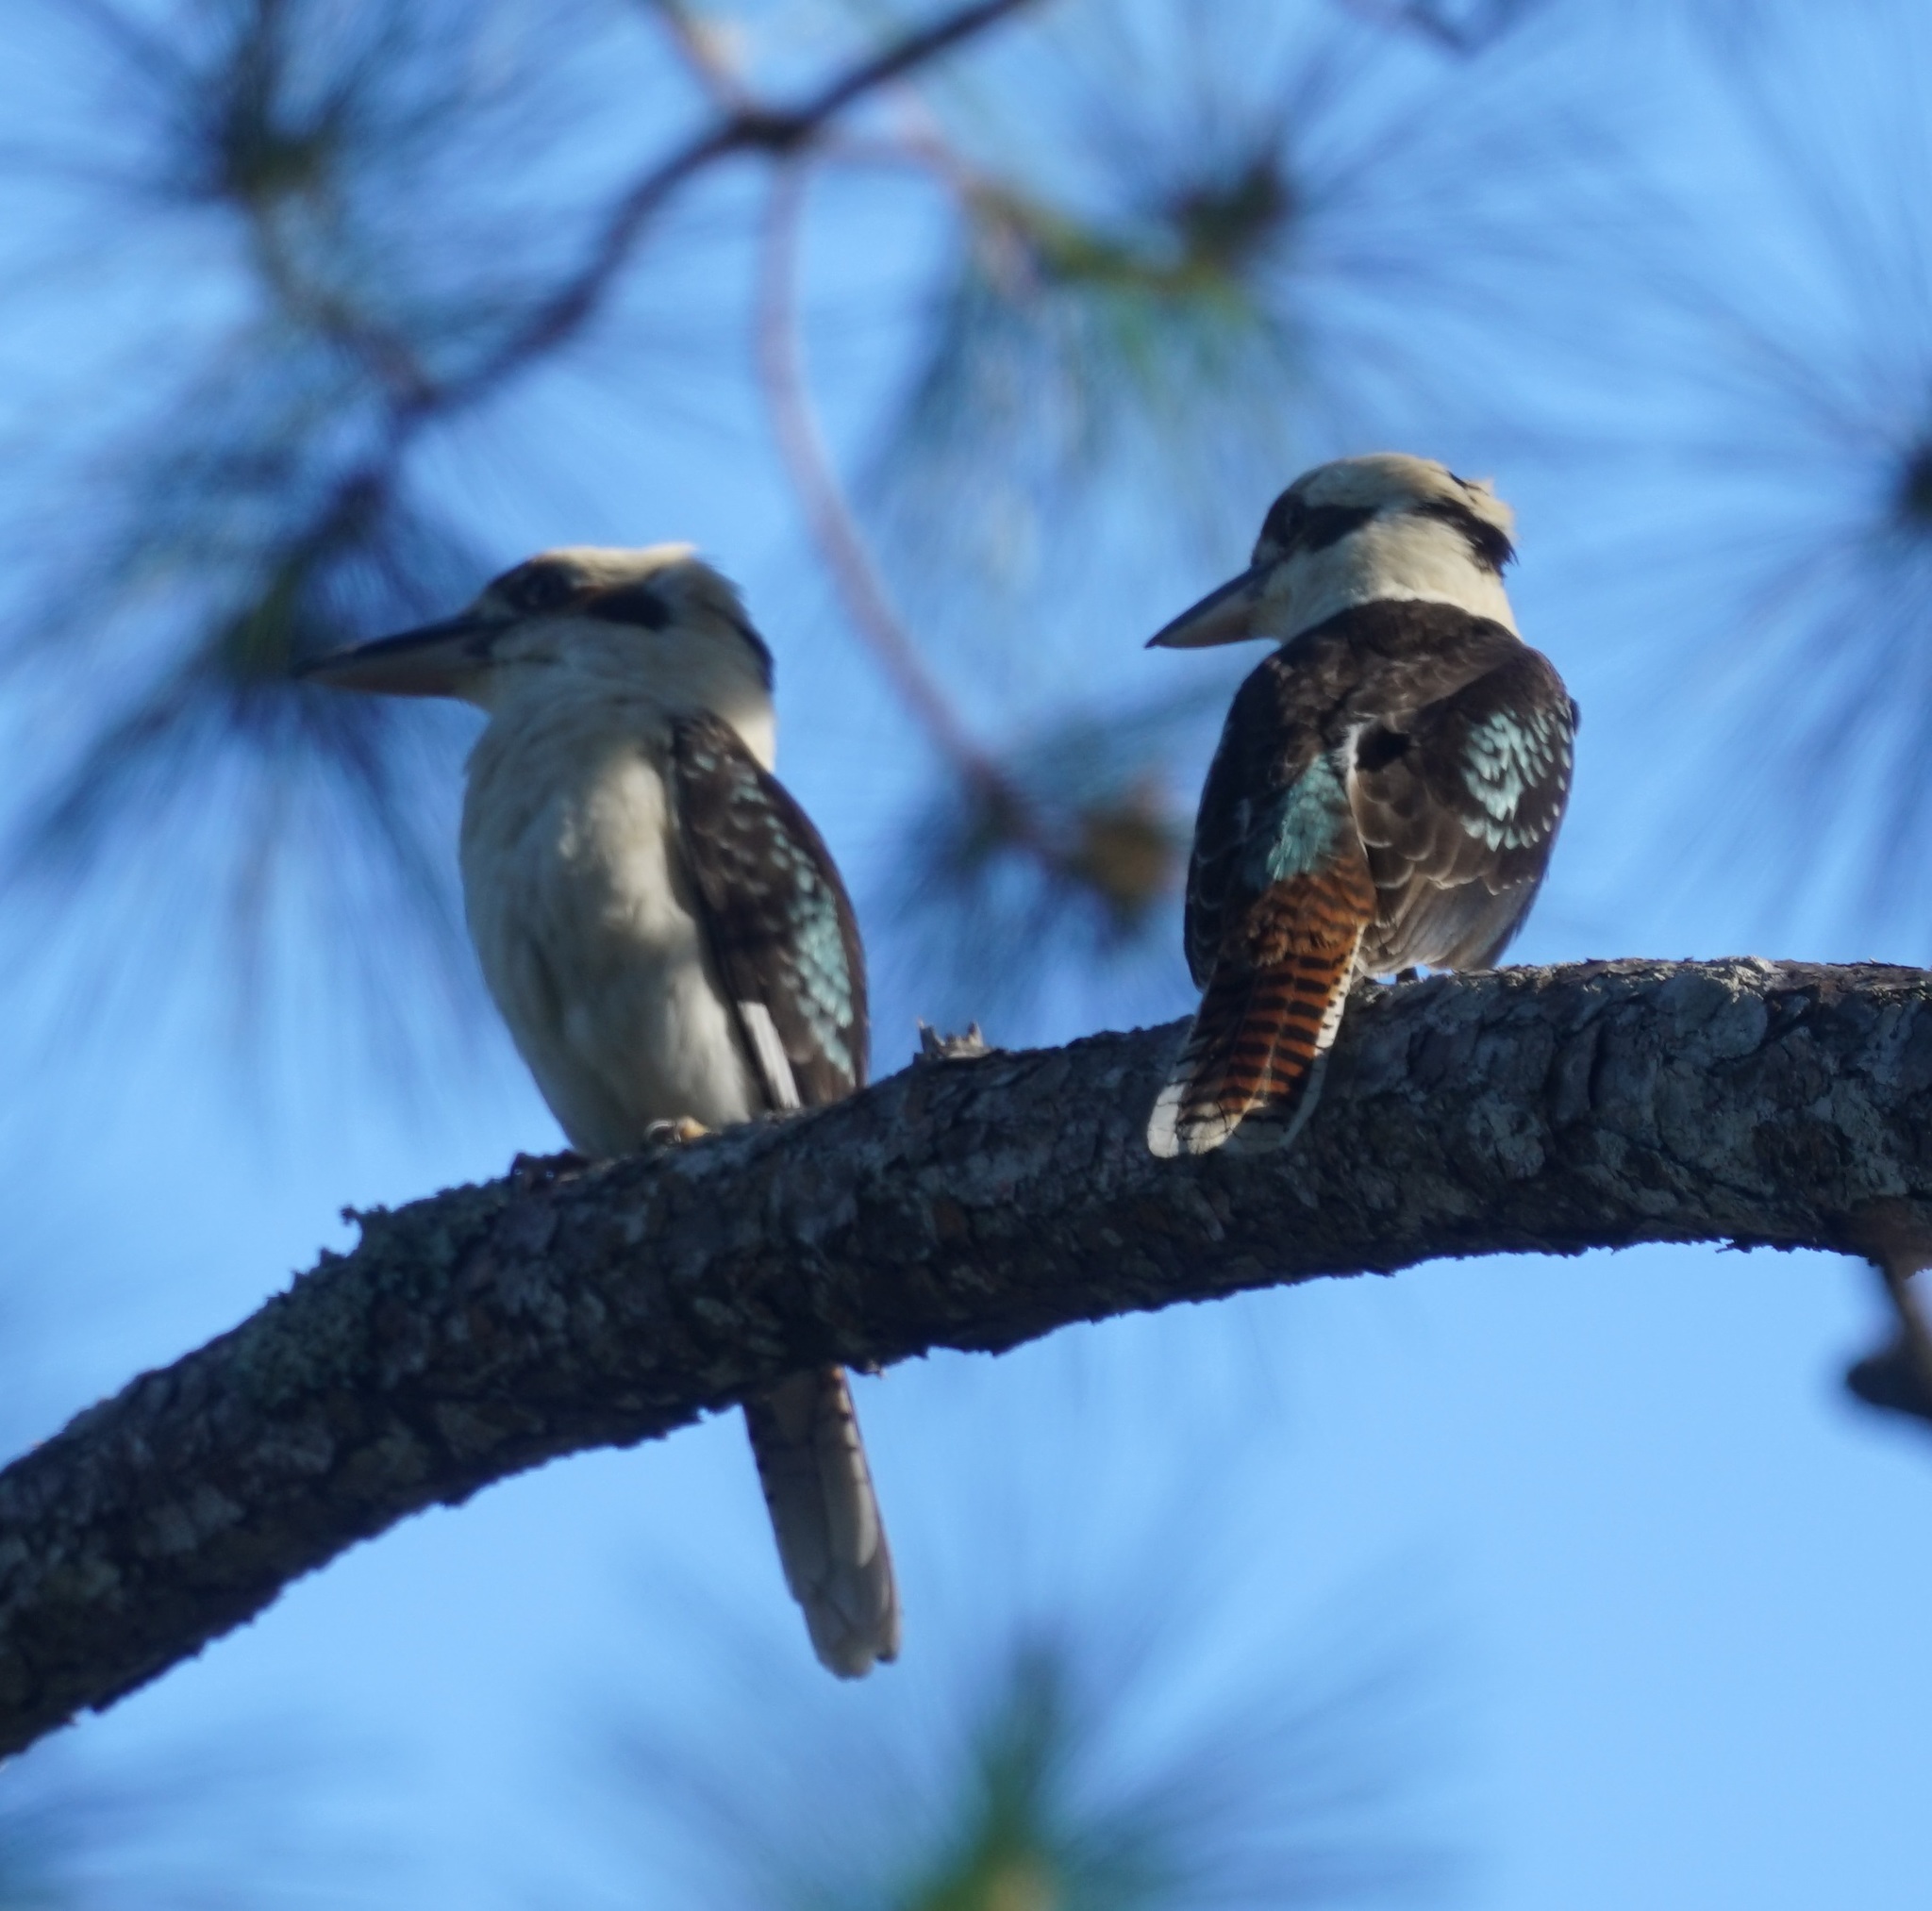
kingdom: Animalia
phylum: Chordata
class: Aves
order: Coraciiformes
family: Alcedinidae
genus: Dacelo
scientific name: Dacelo novaeguineae
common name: Laughing kookaburra
